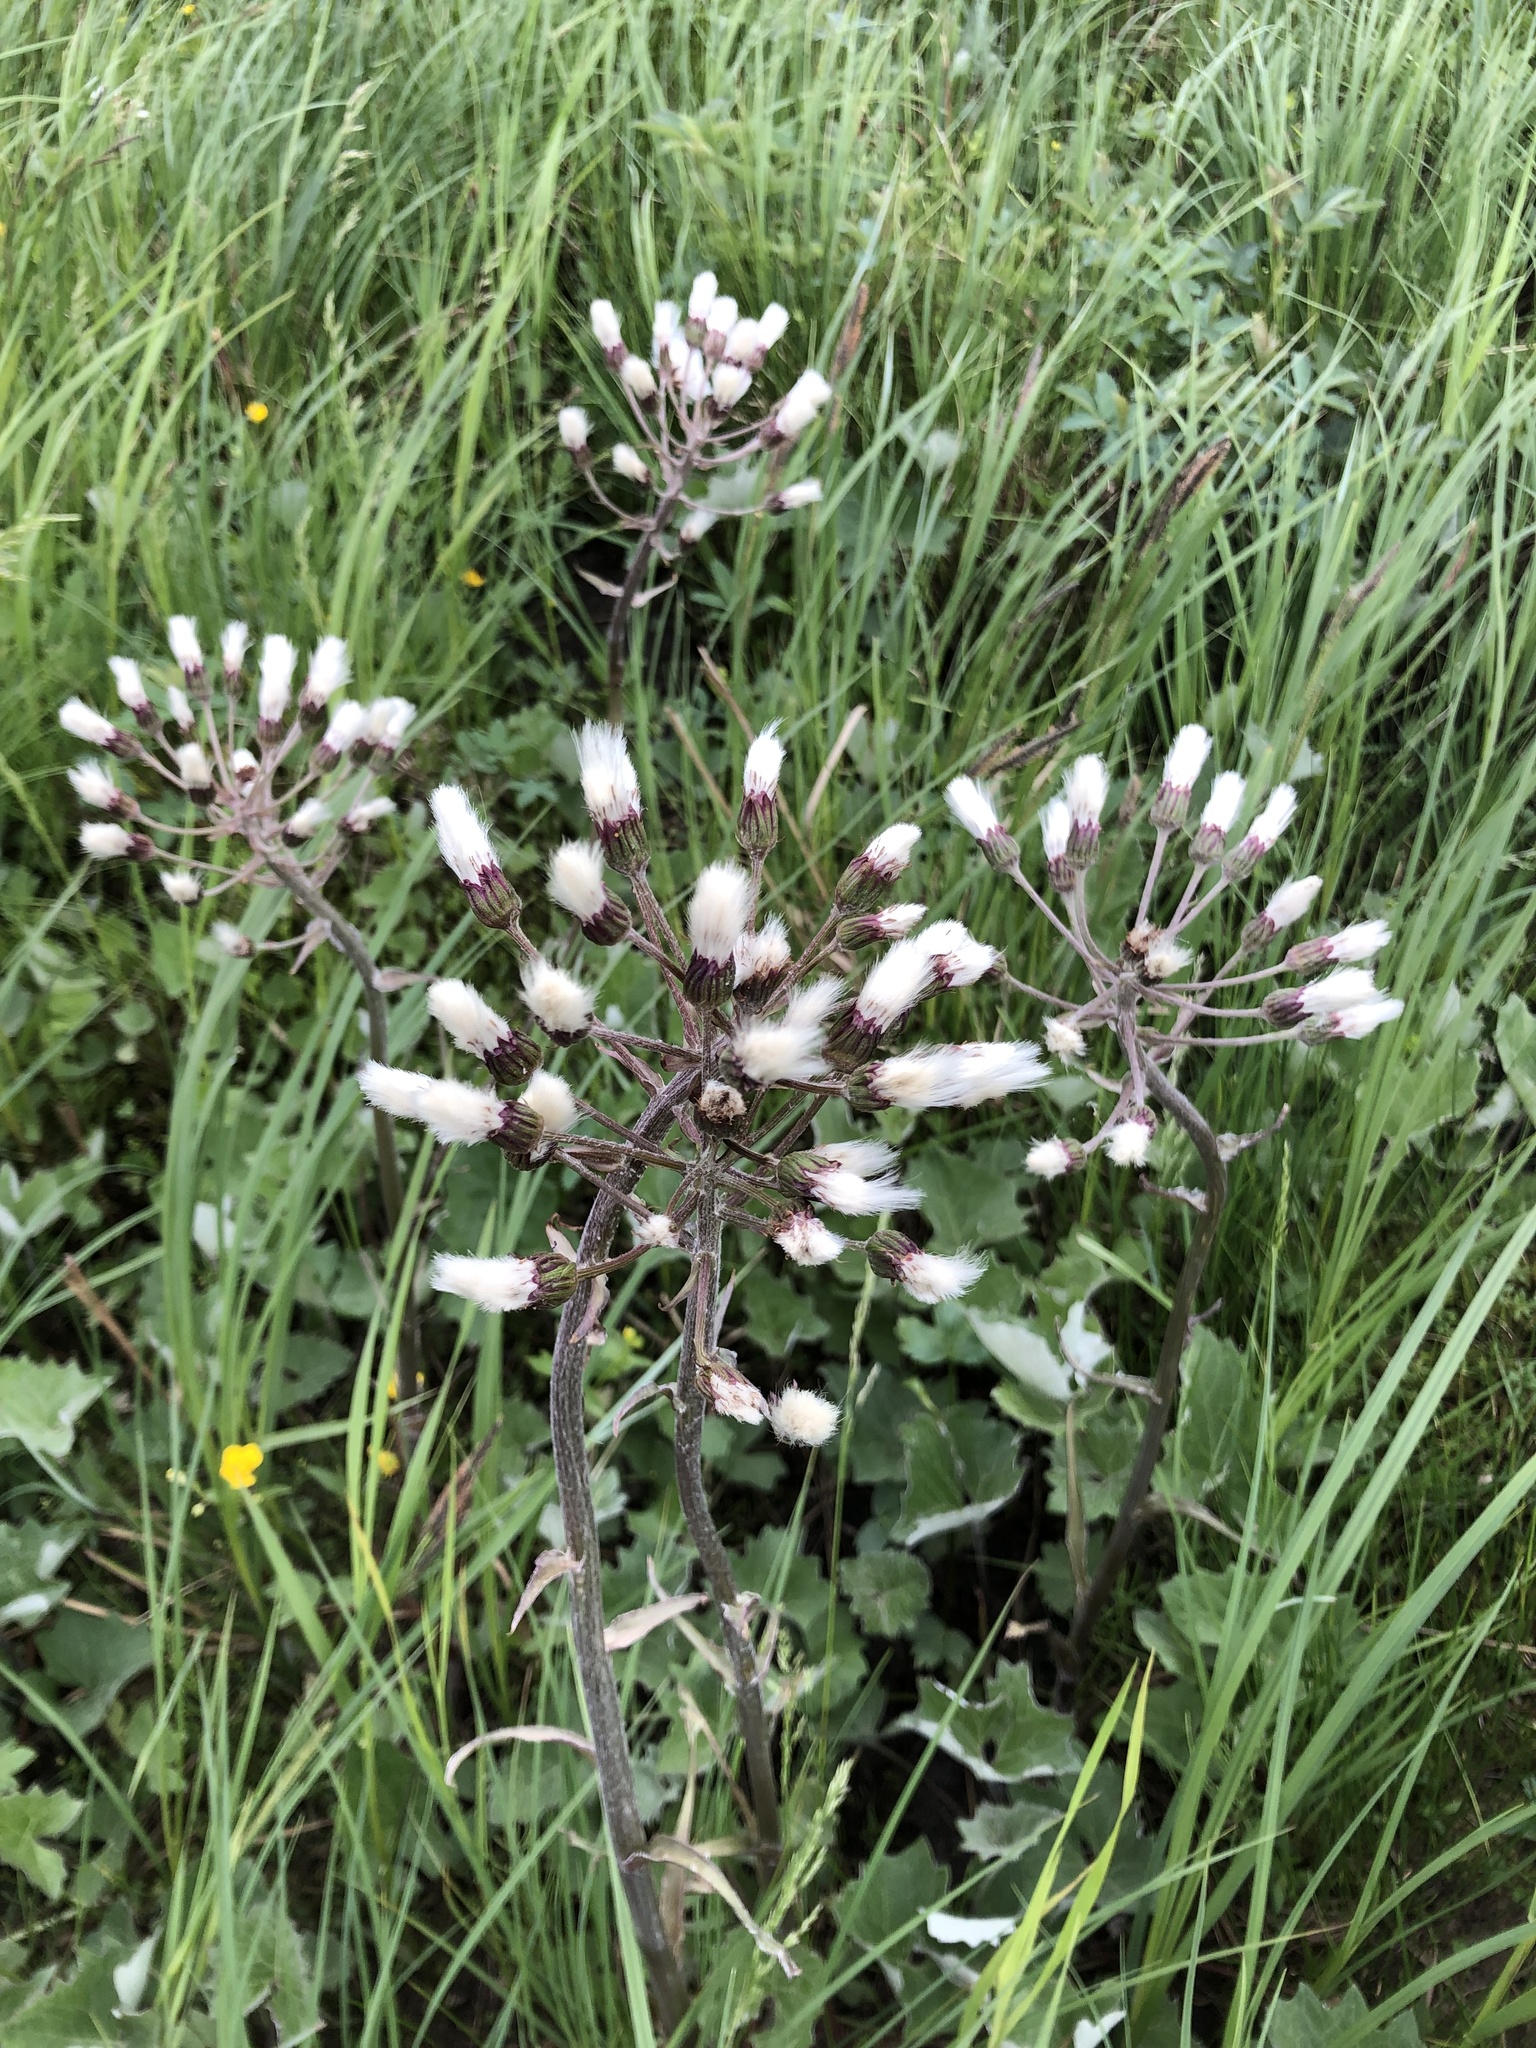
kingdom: Plantae
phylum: Tracheophyta
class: Magnoliopsida
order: Asterales
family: Asteraceae
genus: Petasites
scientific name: Petasites frigidus
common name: Arctic butterbur
